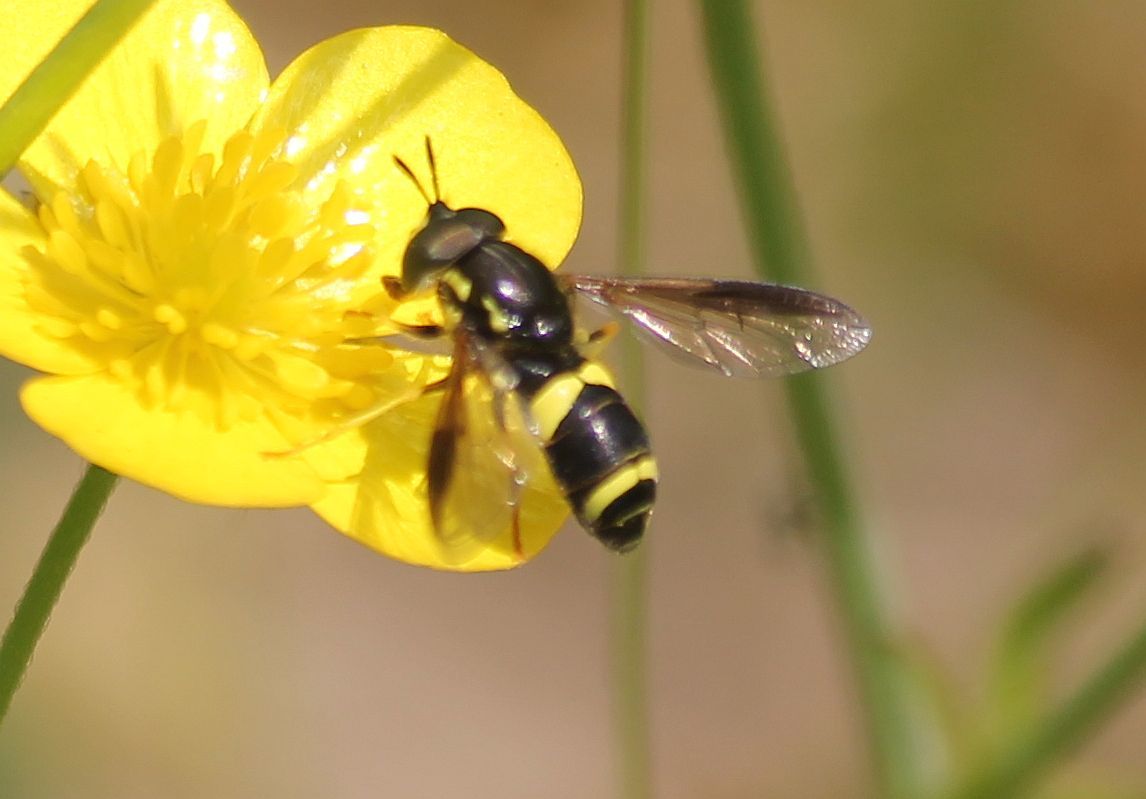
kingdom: Animalia
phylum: Arthropoda
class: Insecta
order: Diptera
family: Syrphidae
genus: Chrysotoxum
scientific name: Chrysotoxum bicincta
